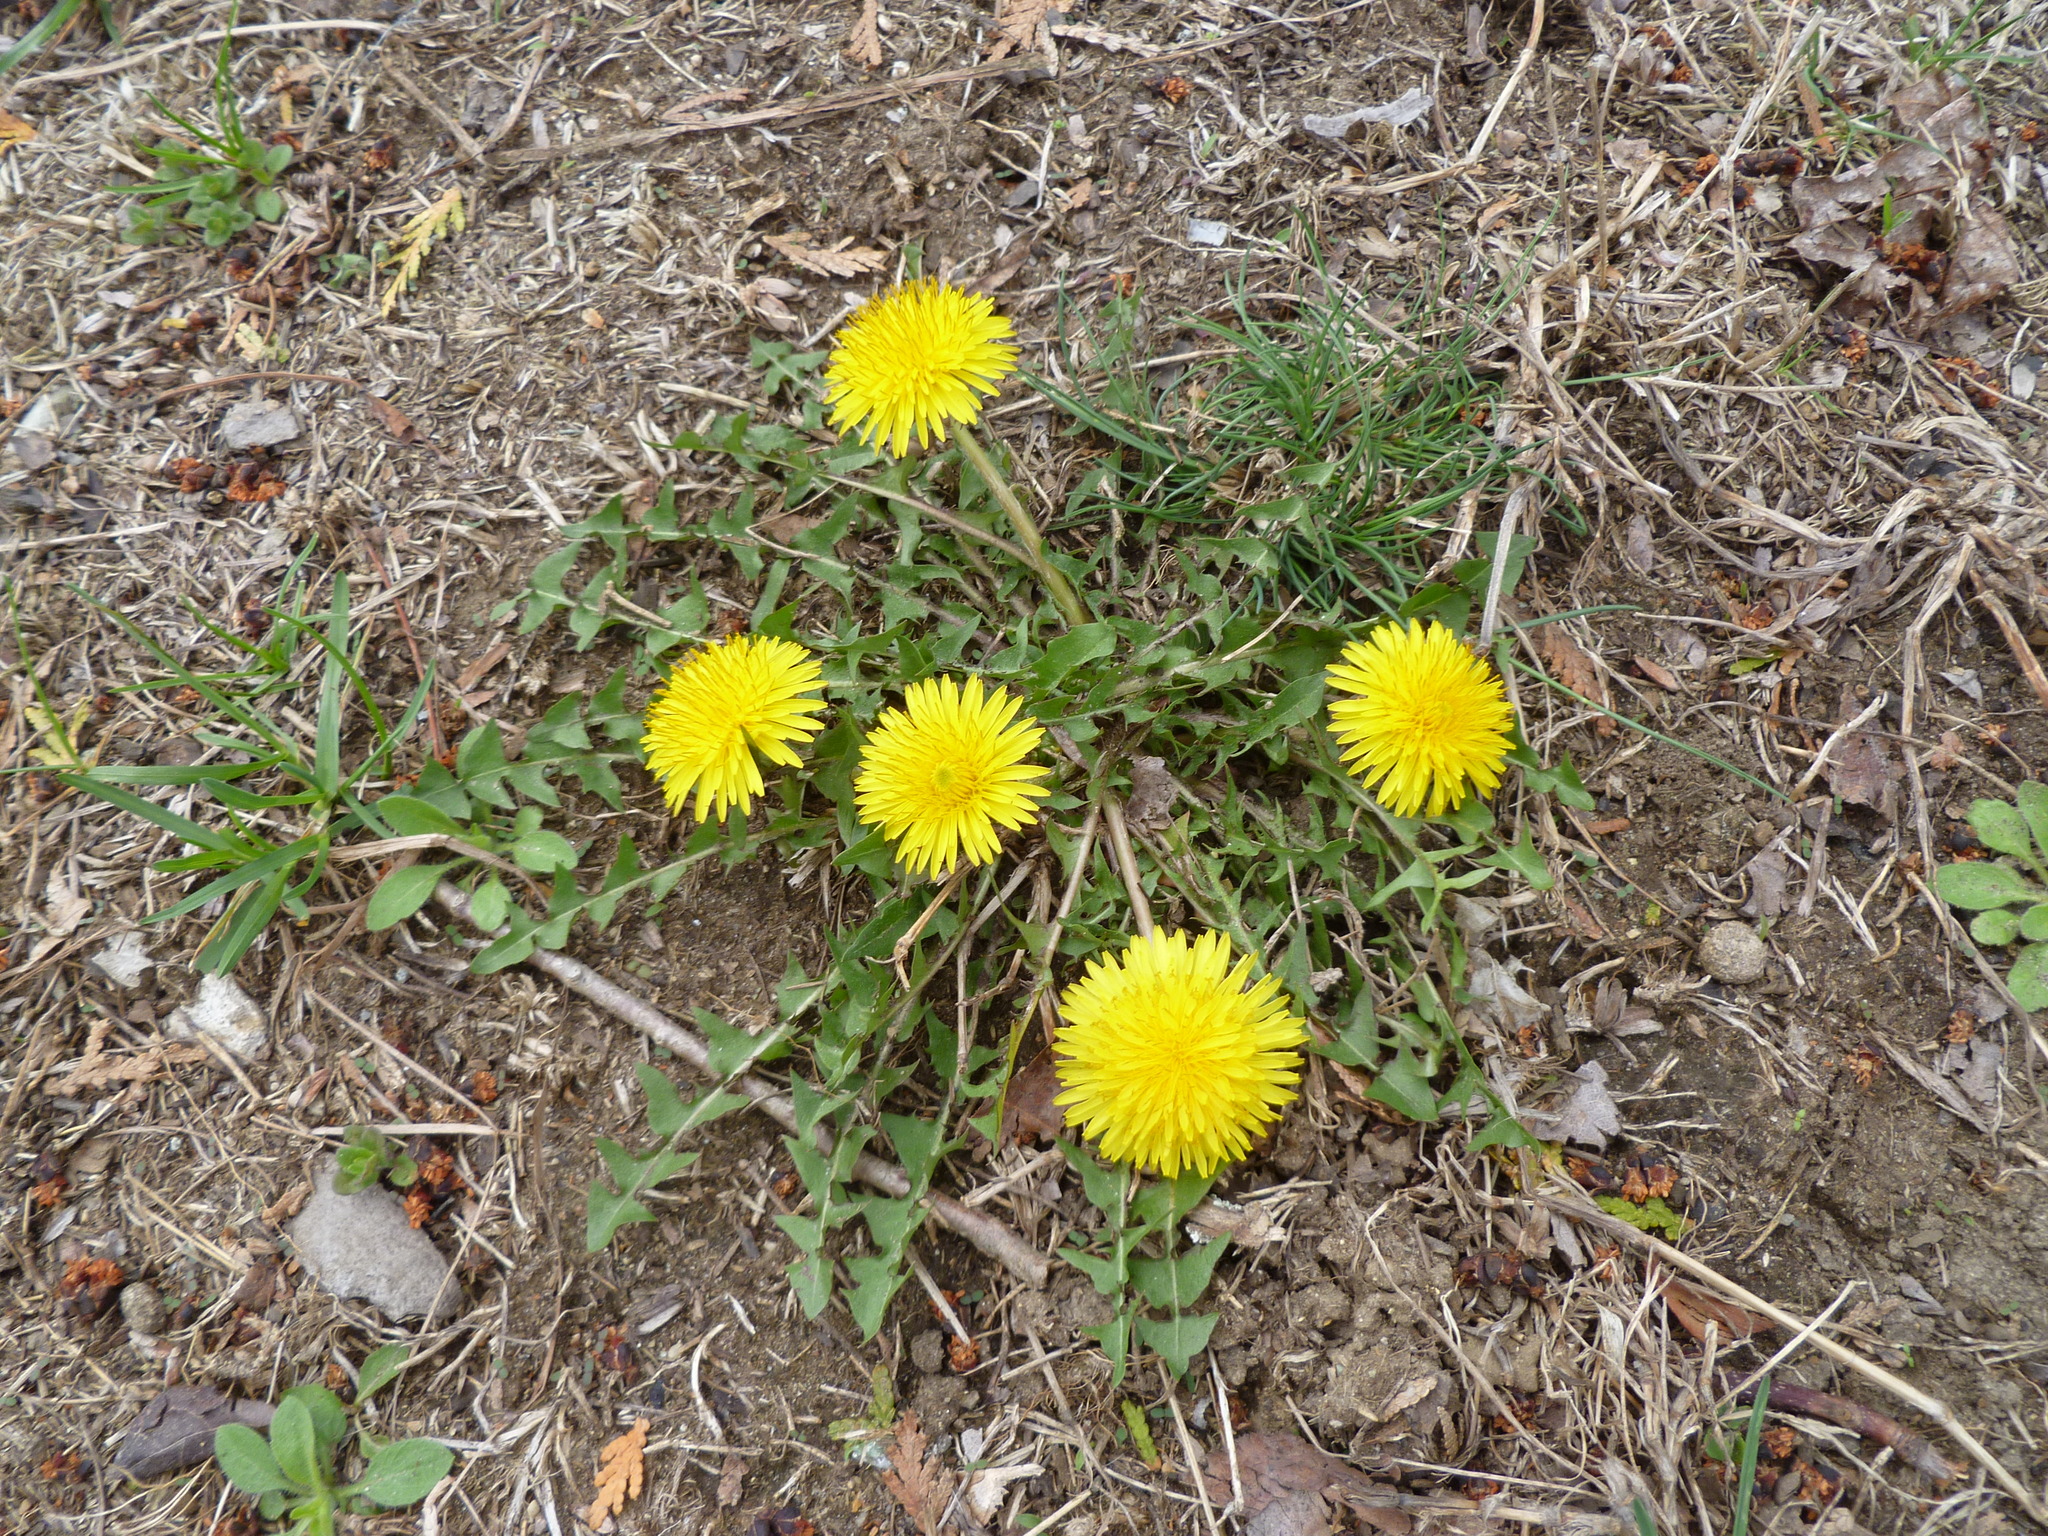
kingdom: Plantae
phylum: Tracheophyta
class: Magnoliopsida
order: Asterales
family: Asteraceae
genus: Taraxacum
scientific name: Taraxacum
